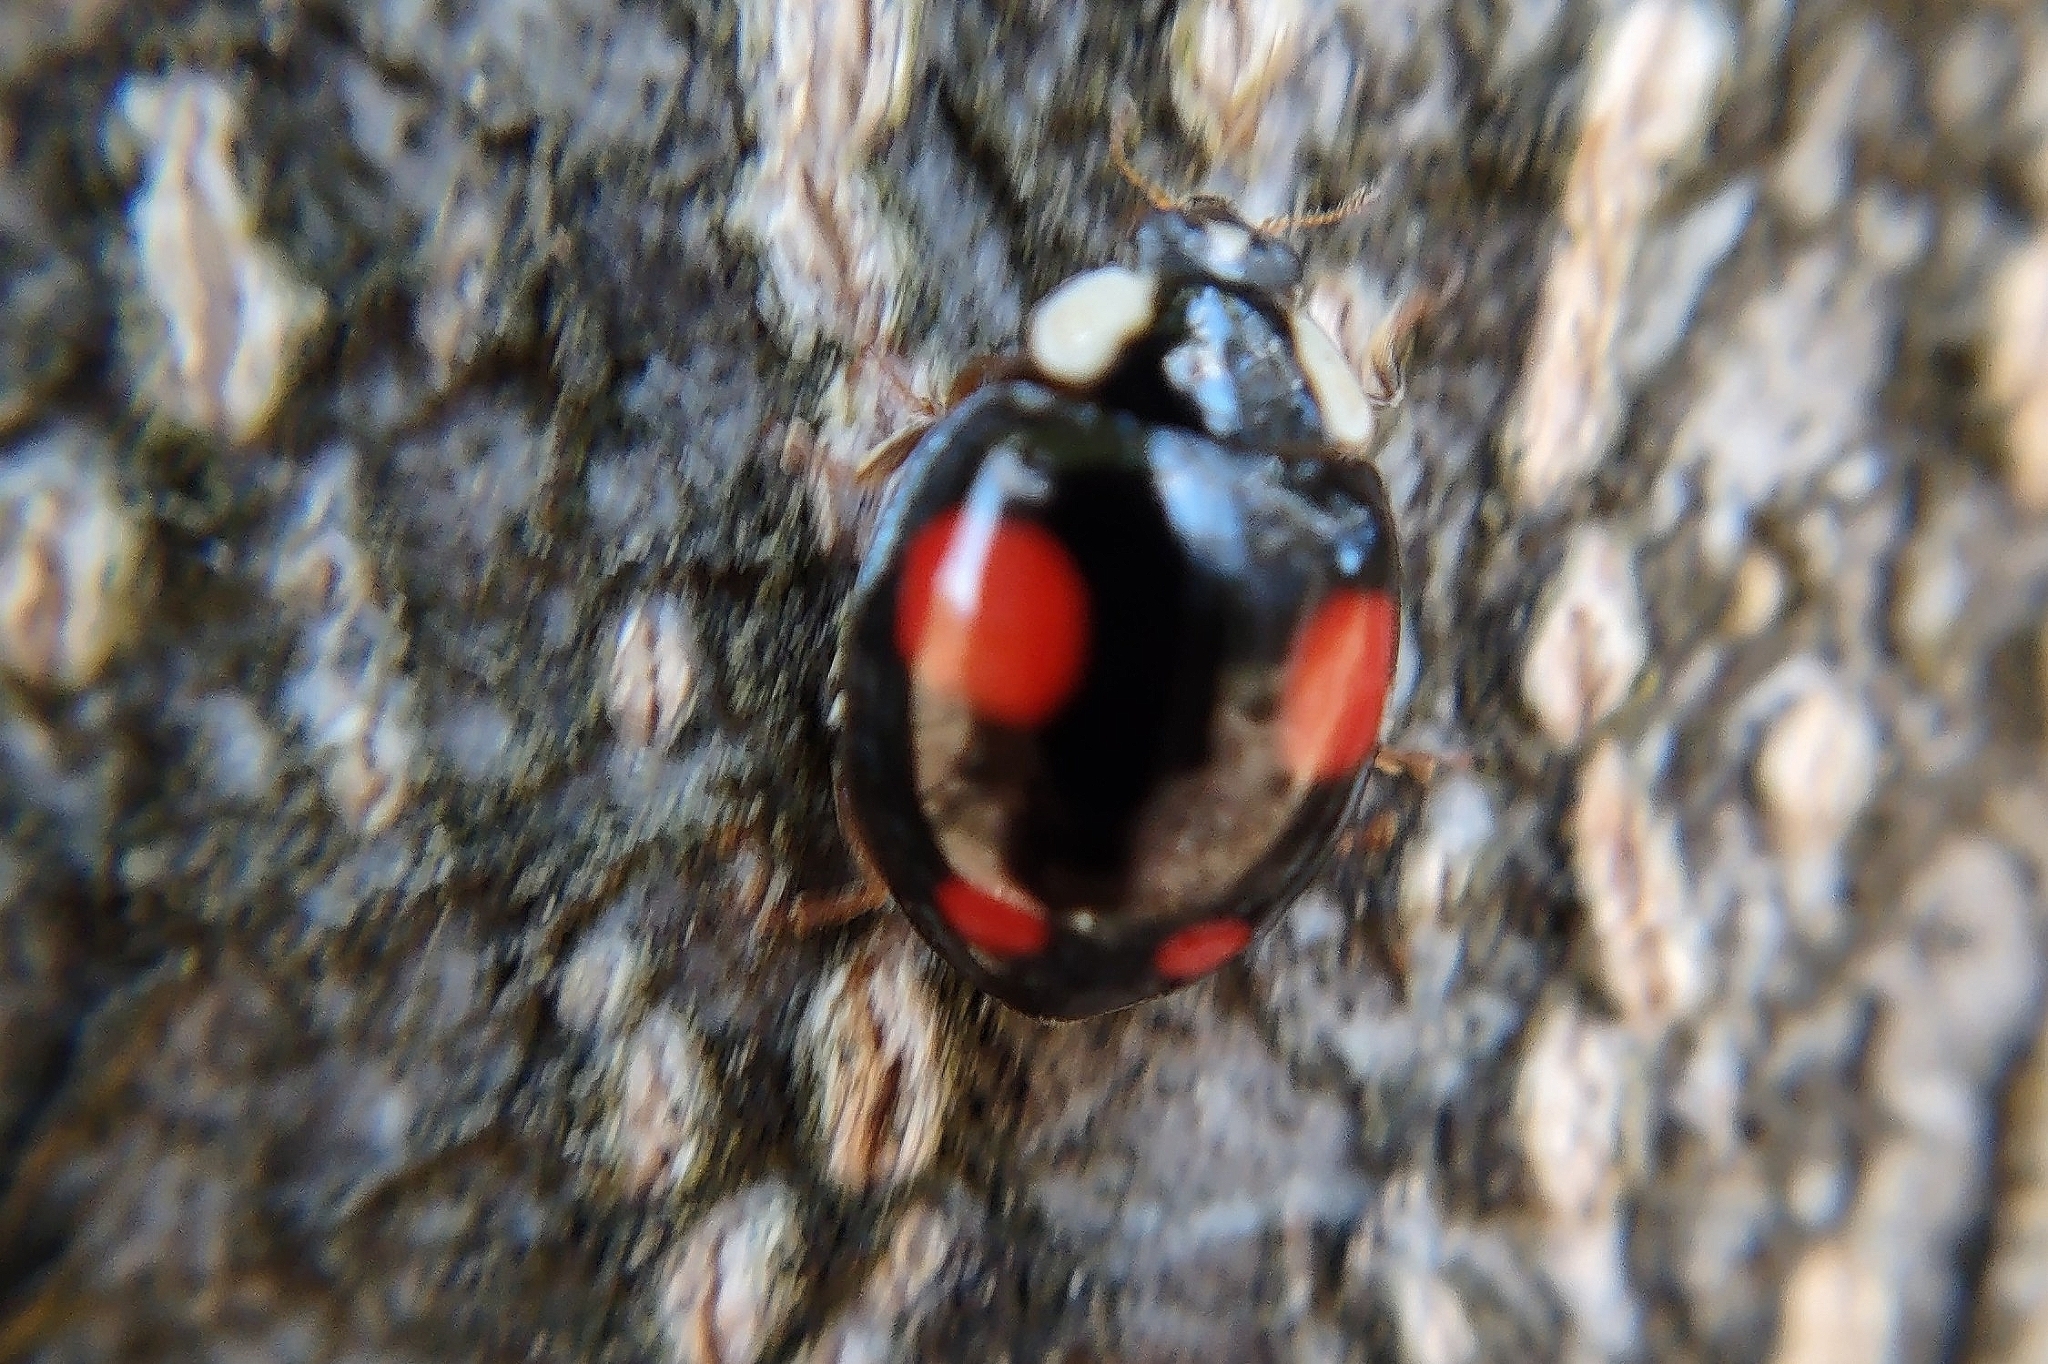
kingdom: Animalia
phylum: Arthropoda
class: Insecta
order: Coleoptera
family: Coccinellidae
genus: Harmonia
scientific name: Harmonia axyridis
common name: Harlequin ladybird
